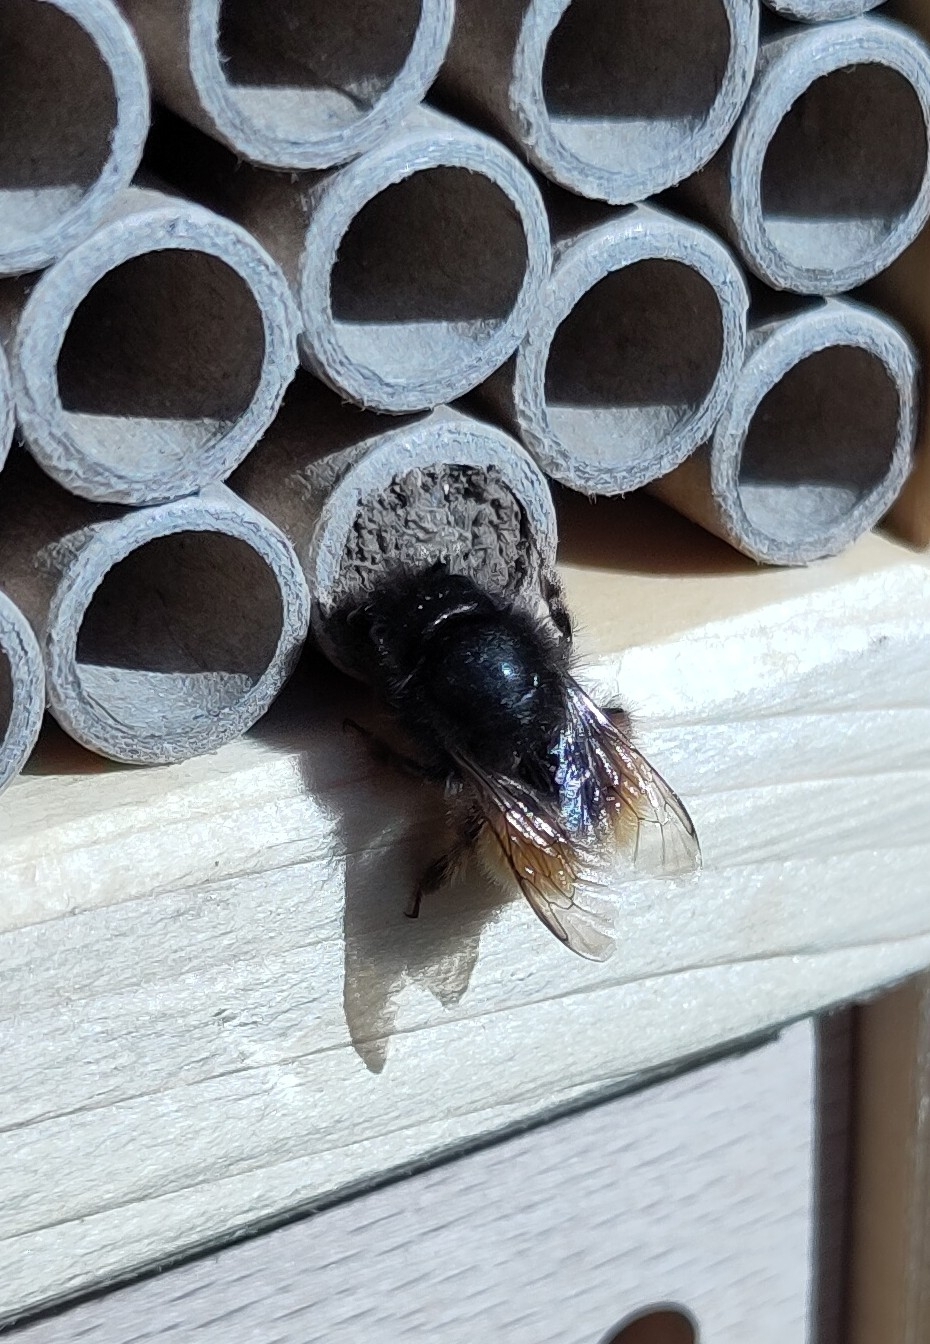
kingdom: Animalia
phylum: Arthropoda
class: Insecta
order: Hymenoptera
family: Megachilidae
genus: Osmia
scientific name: Osmia cornuta
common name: Mason bee
